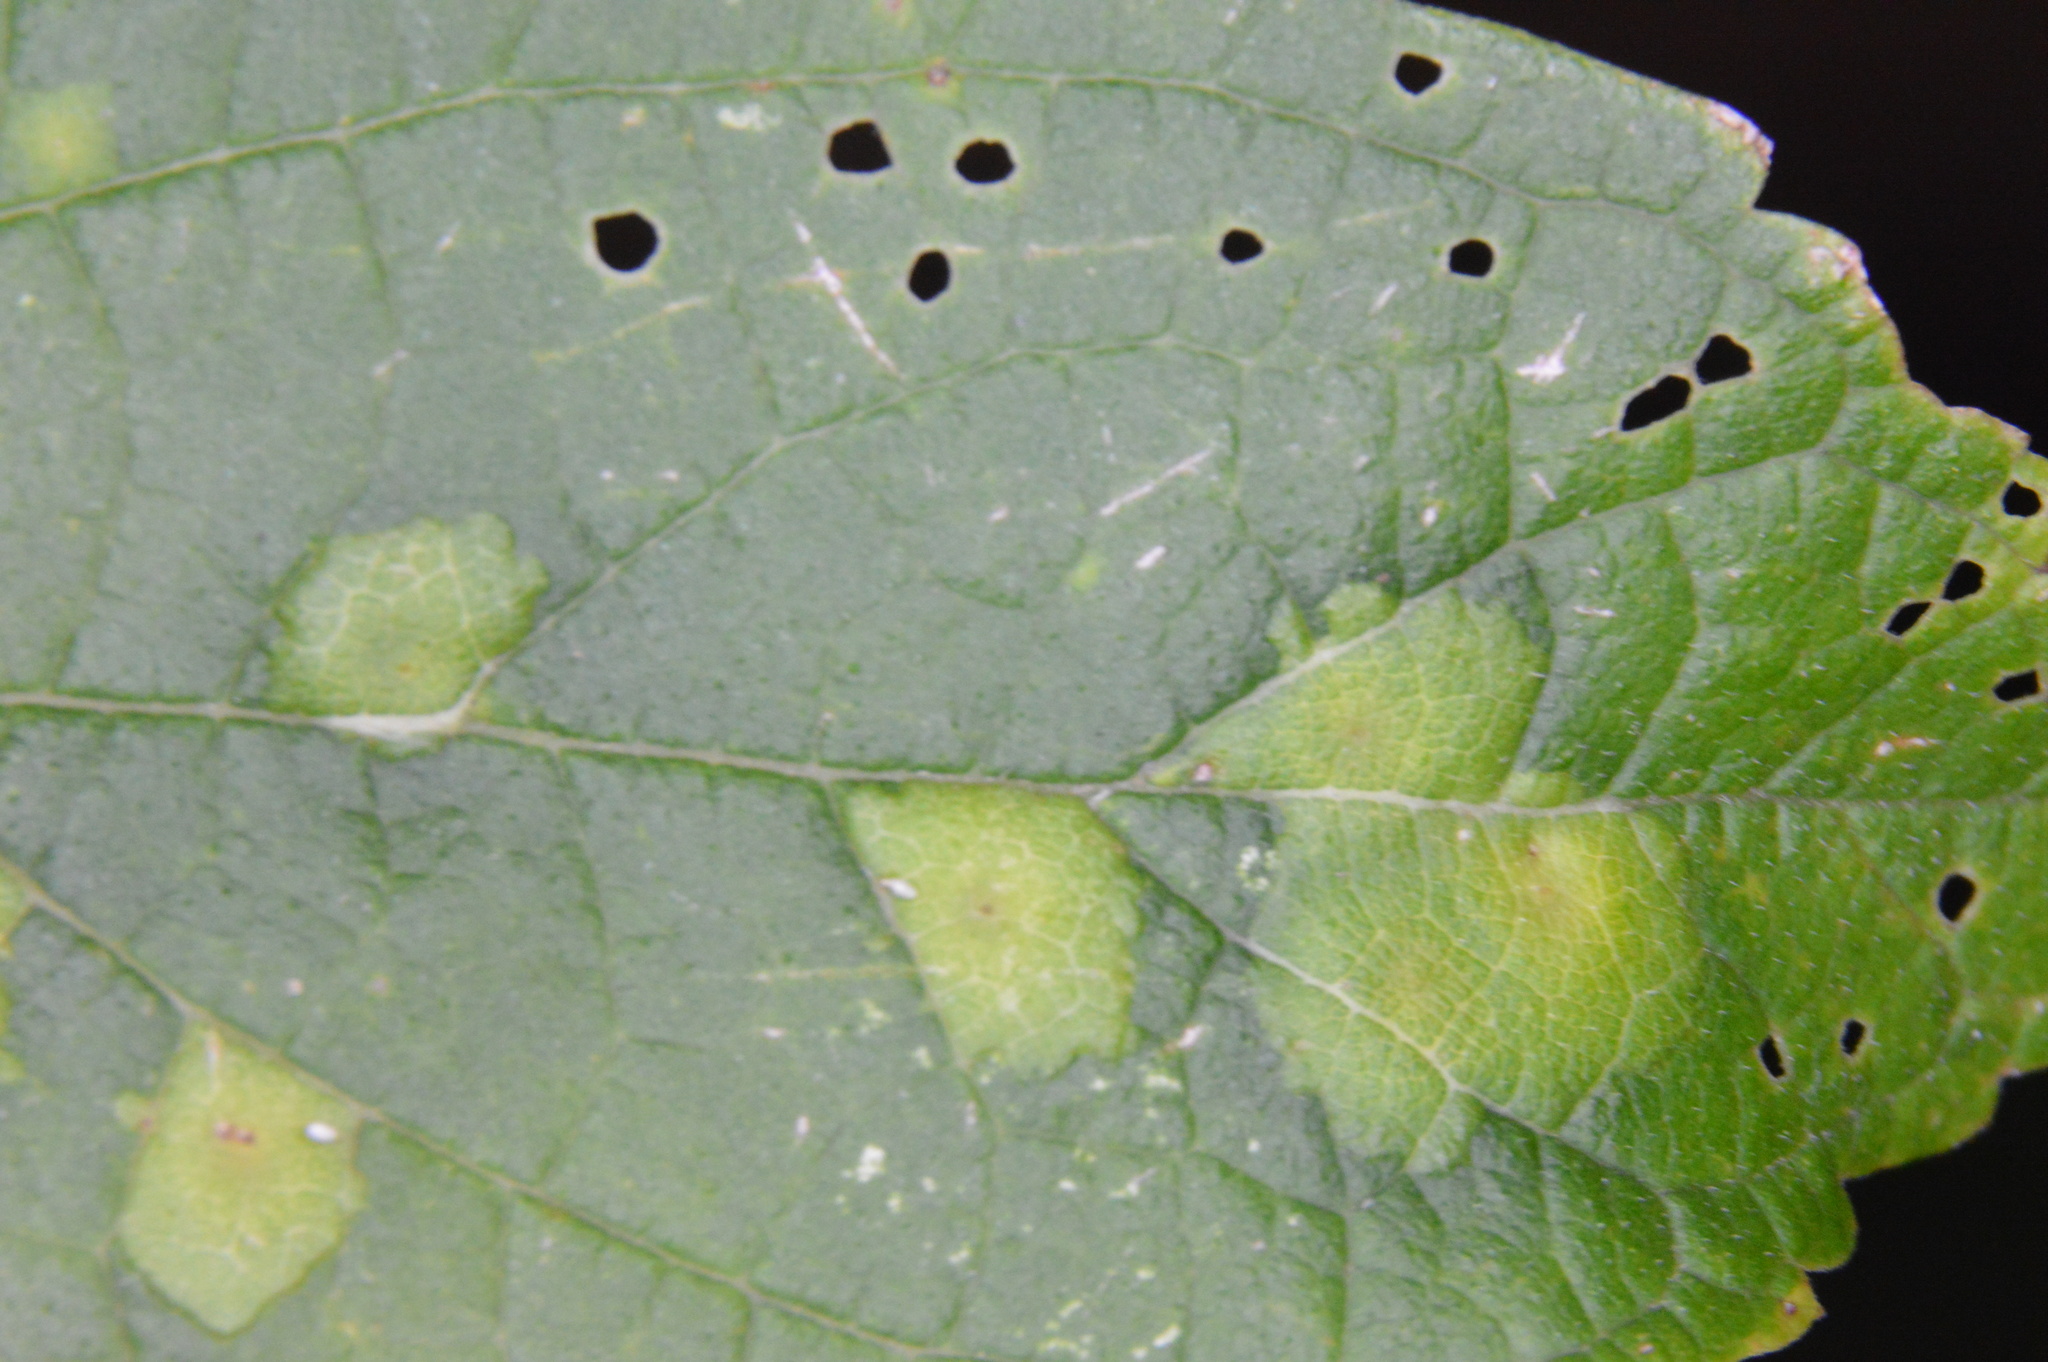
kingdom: Animalia
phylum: Arthropoda
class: Insecta
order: Hemiptera
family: Aphalaridae
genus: Pachypsylla
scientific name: Pachypsylla celtidisvesicula
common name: Hackberry blister gall psyllid
